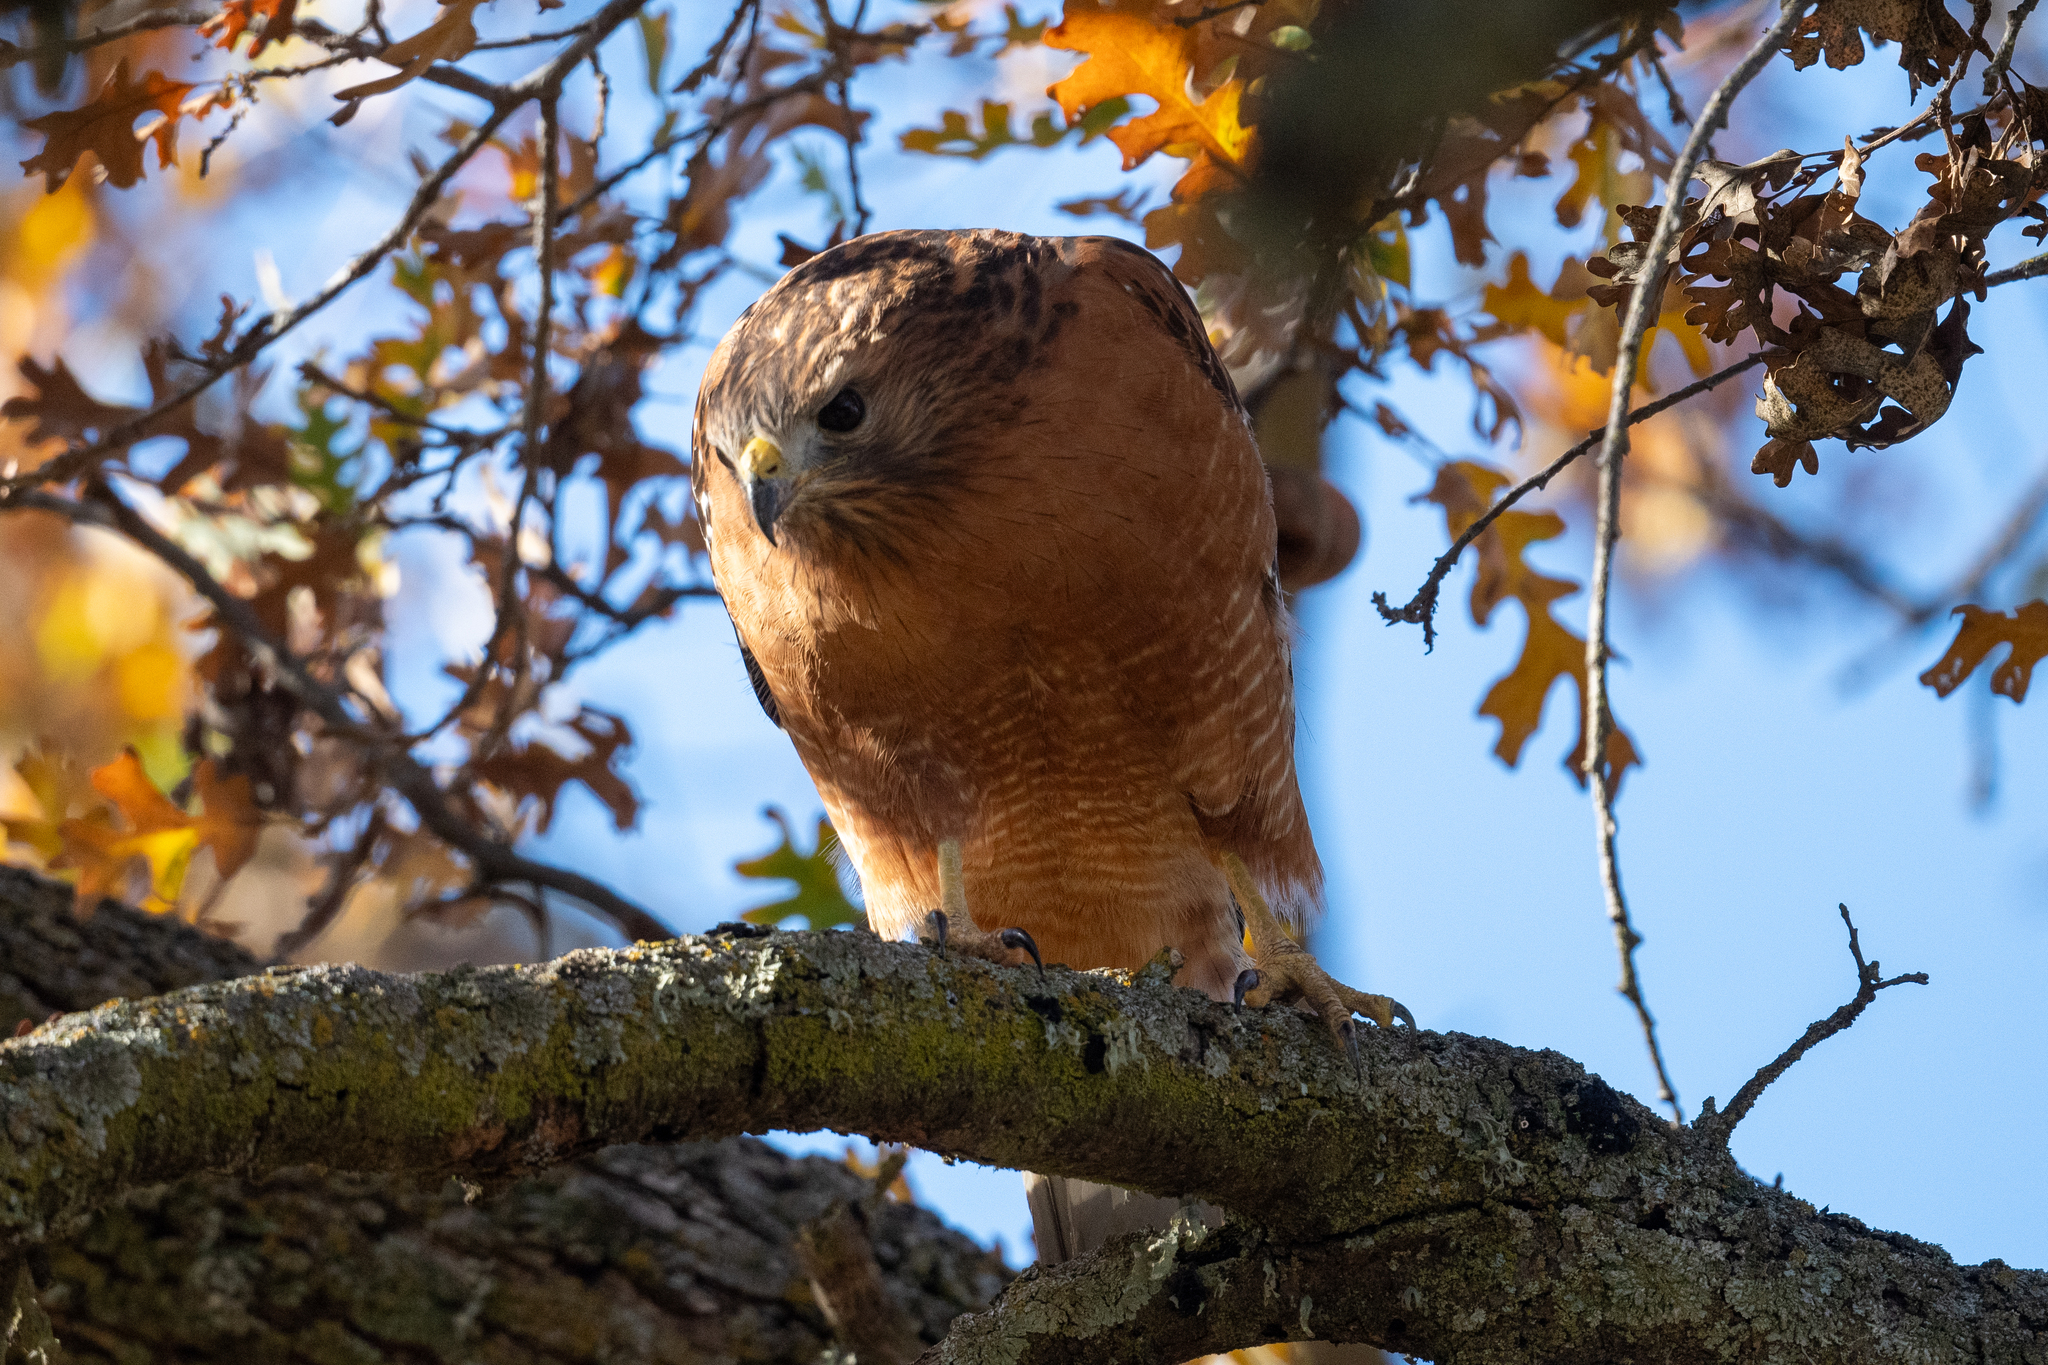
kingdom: Animalia
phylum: Chordata
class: Aves
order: Accipitriformes
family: Accipitridae
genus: Buteo
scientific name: Buteo lineatus
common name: Red-shouldered hawk
